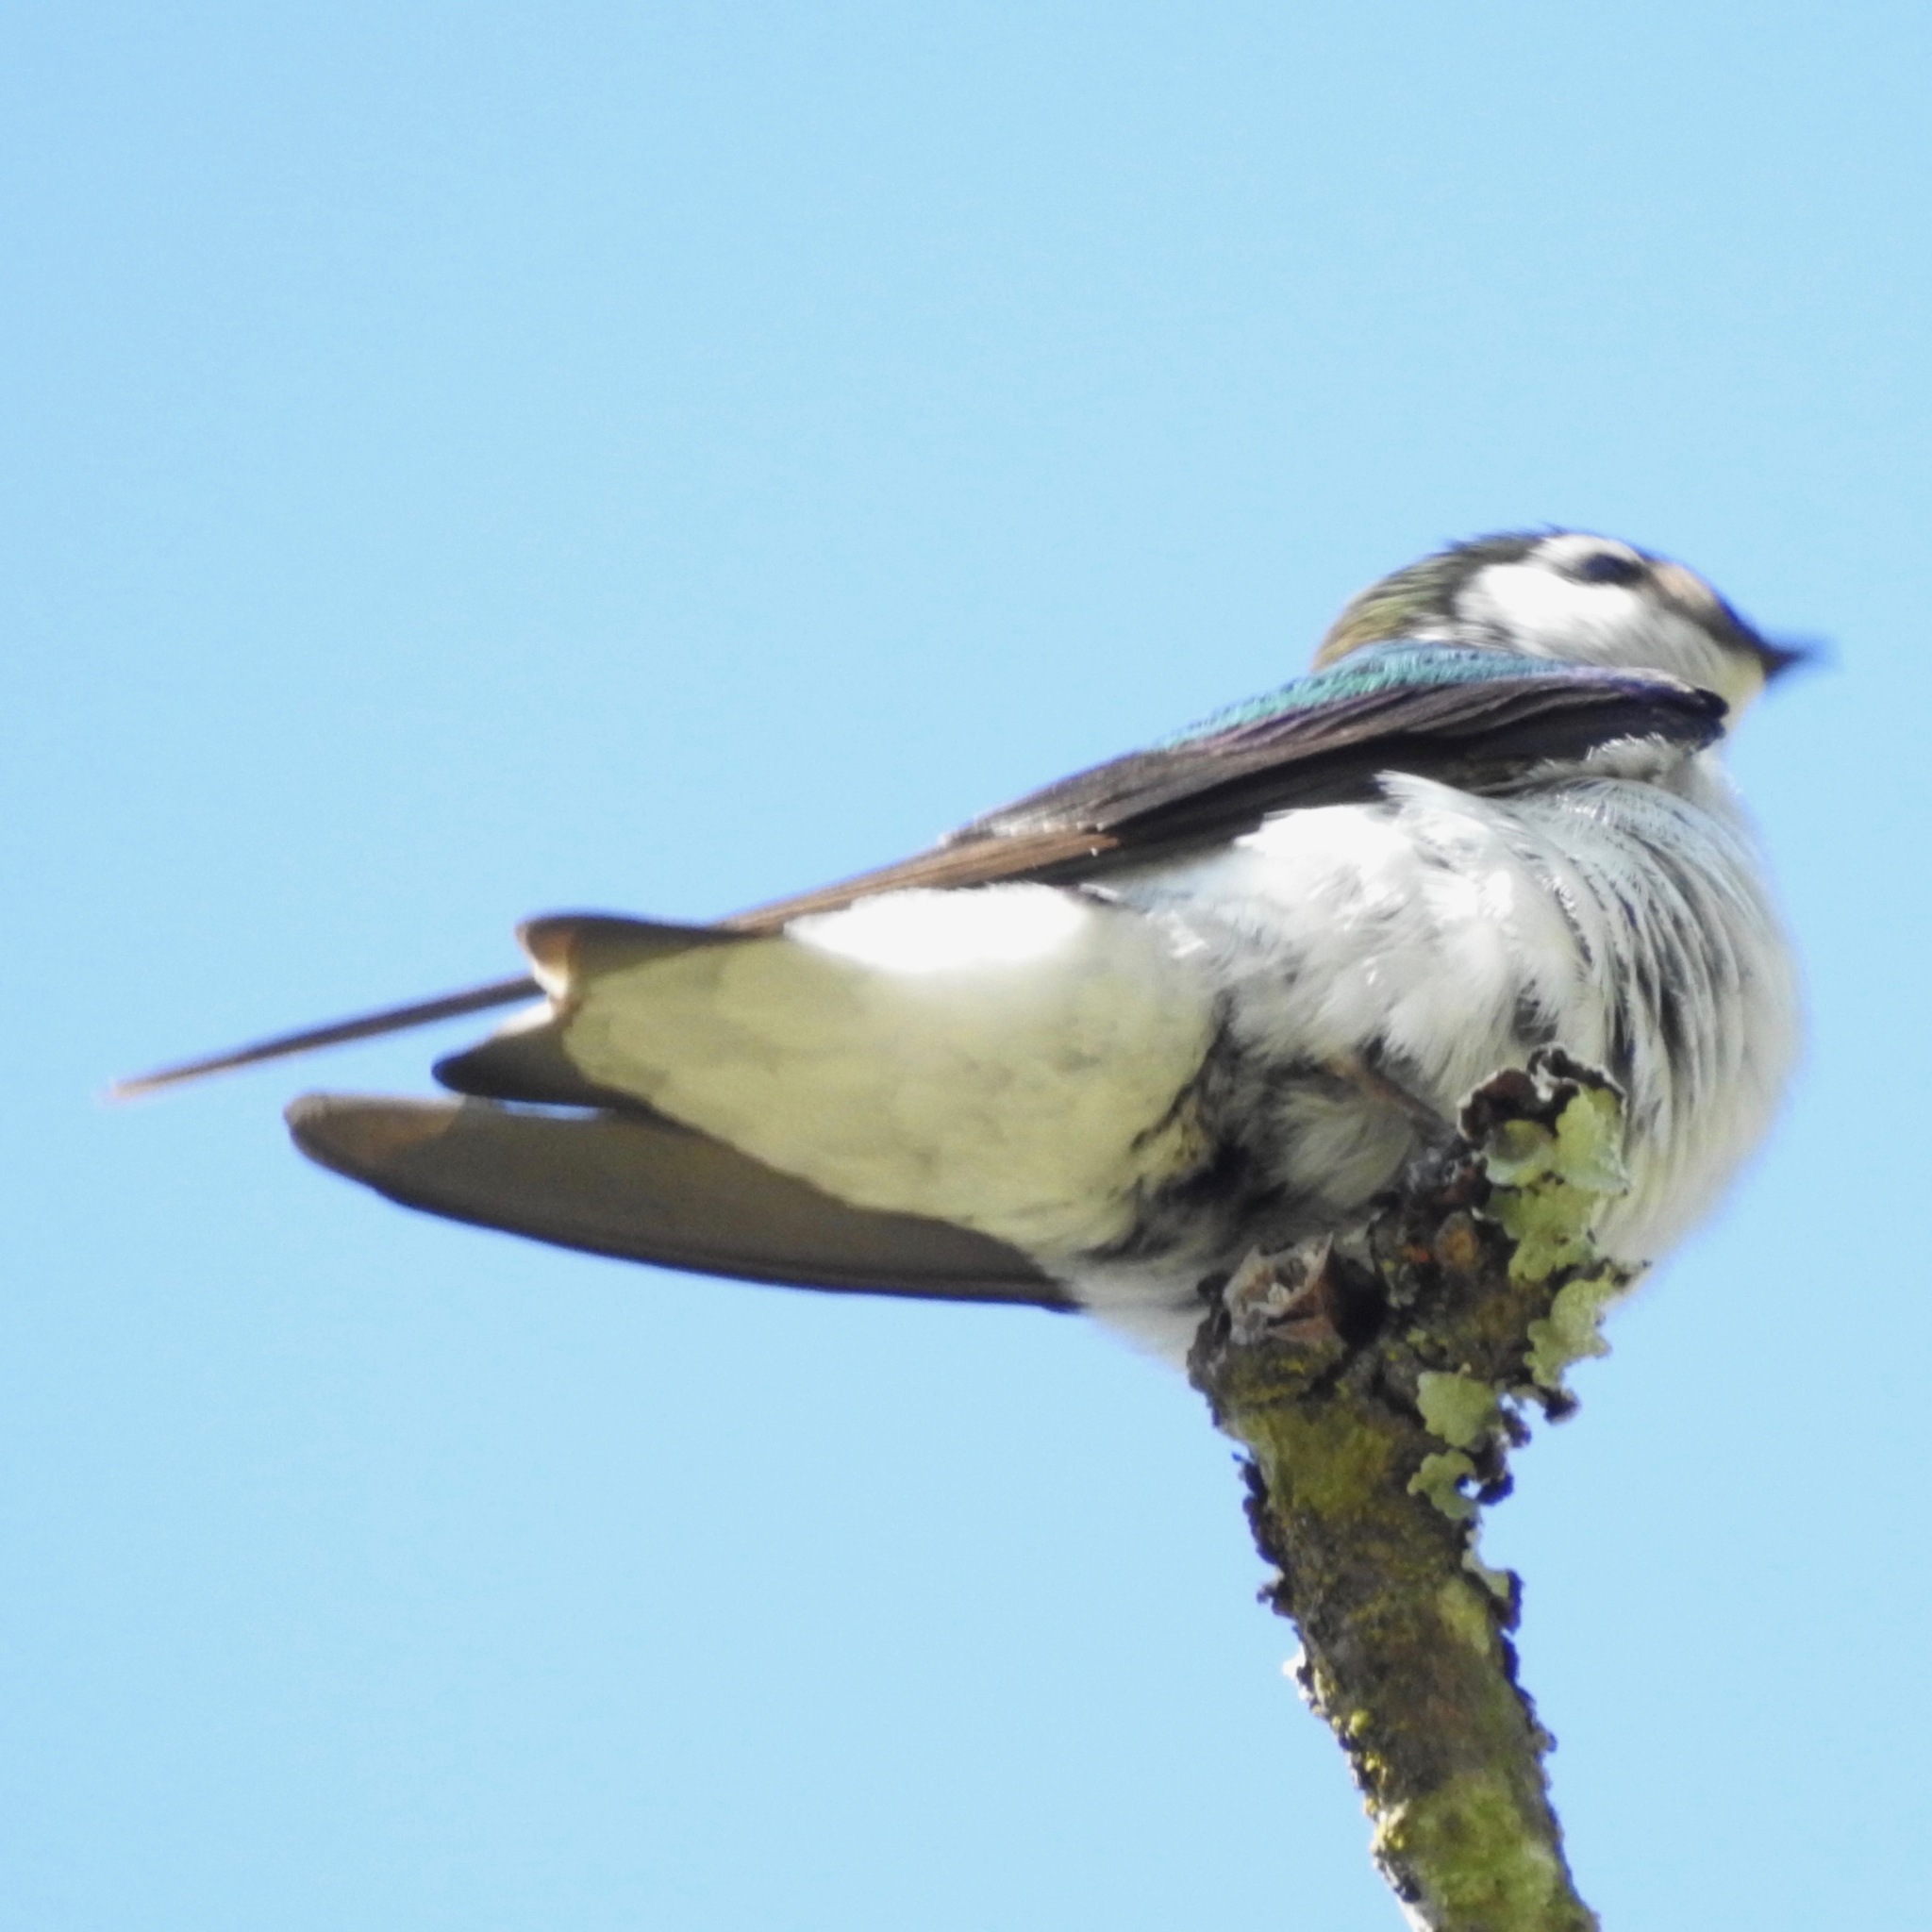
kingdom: Animalia
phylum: Chordata
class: Aves
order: Passeriformes
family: Hirundinidae
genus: Tachycineta
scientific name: Tachycineta thalassina
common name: Violet-green swallow
